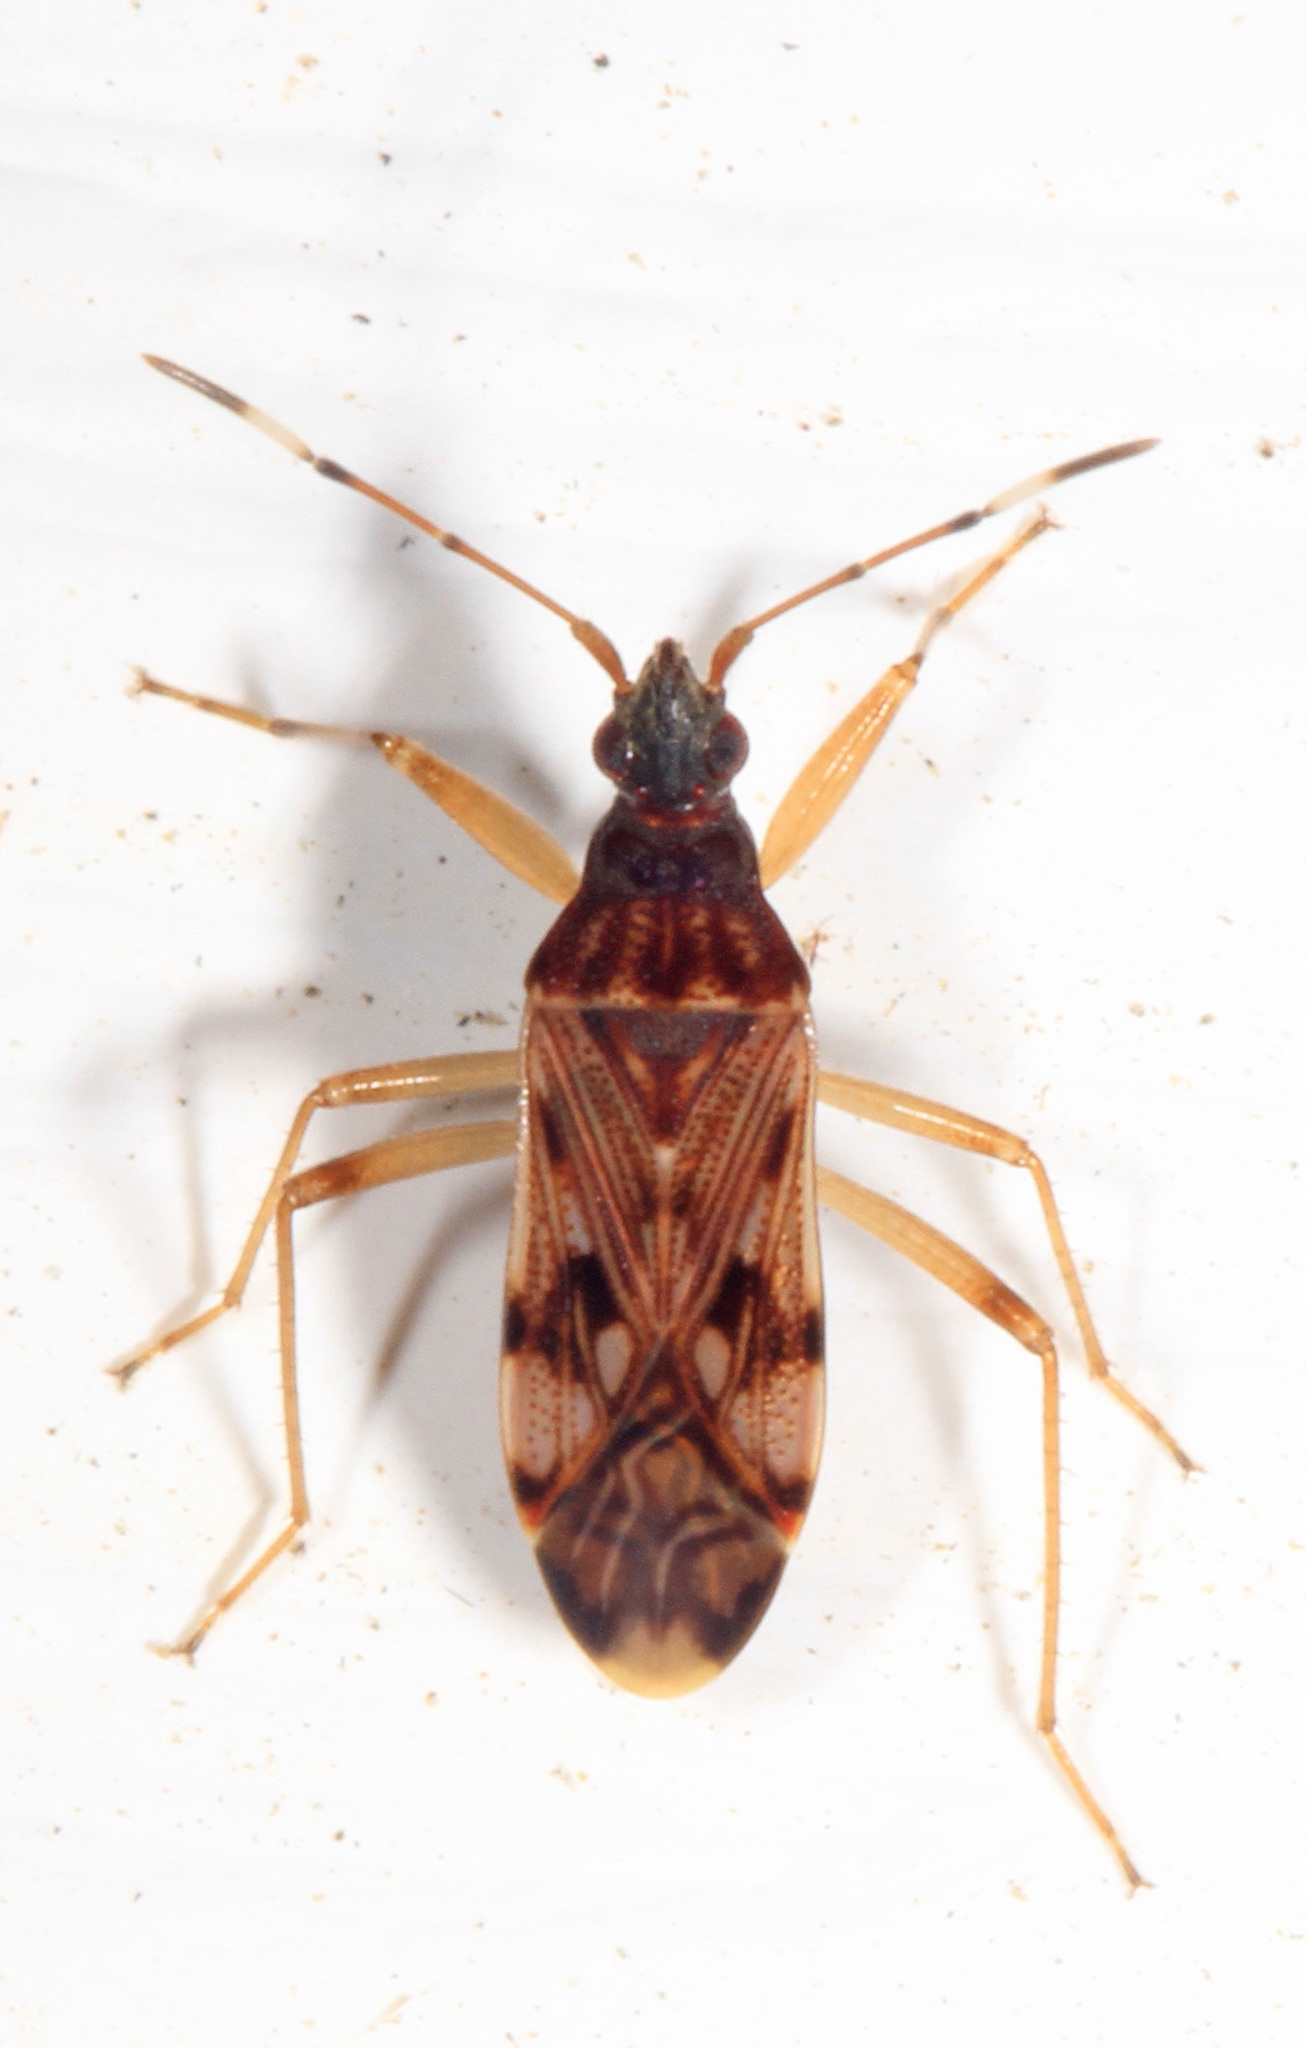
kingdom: Animalia
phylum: Arthropoda
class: Insecta
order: Hemiptera
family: Rhyparochromidae
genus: Ozophora
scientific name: Ozophora picturata
